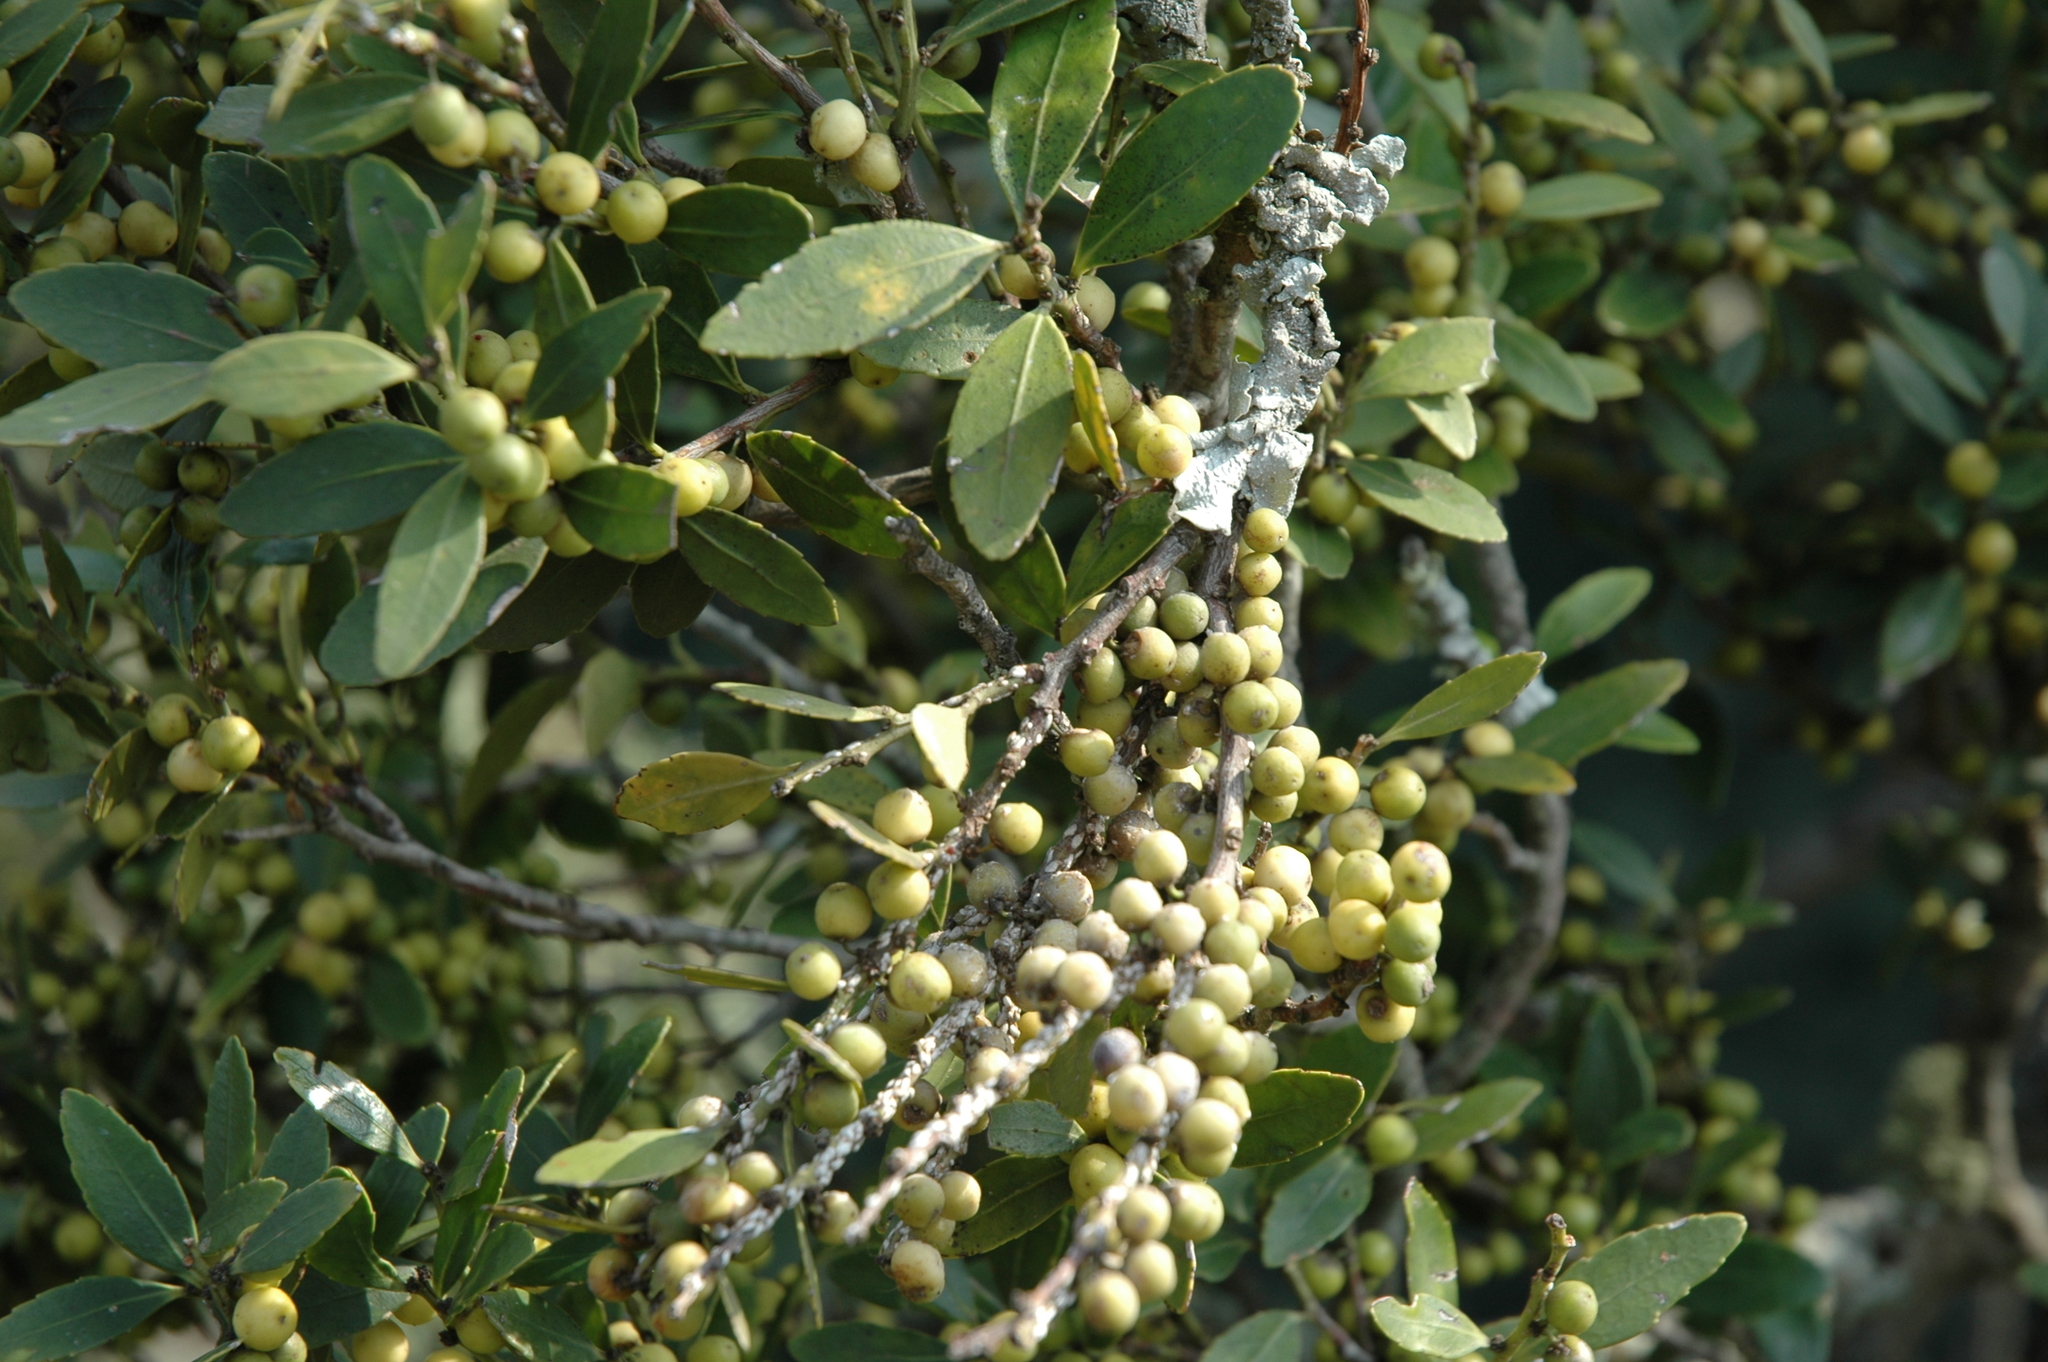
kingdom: Plantae
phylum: Tracheophyta
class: Magnoliopsida
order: Celastrales
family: Celastraceae
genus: Robsonodendron
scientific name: Robsonodendron eucleiforme
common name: Mock silky-bark
